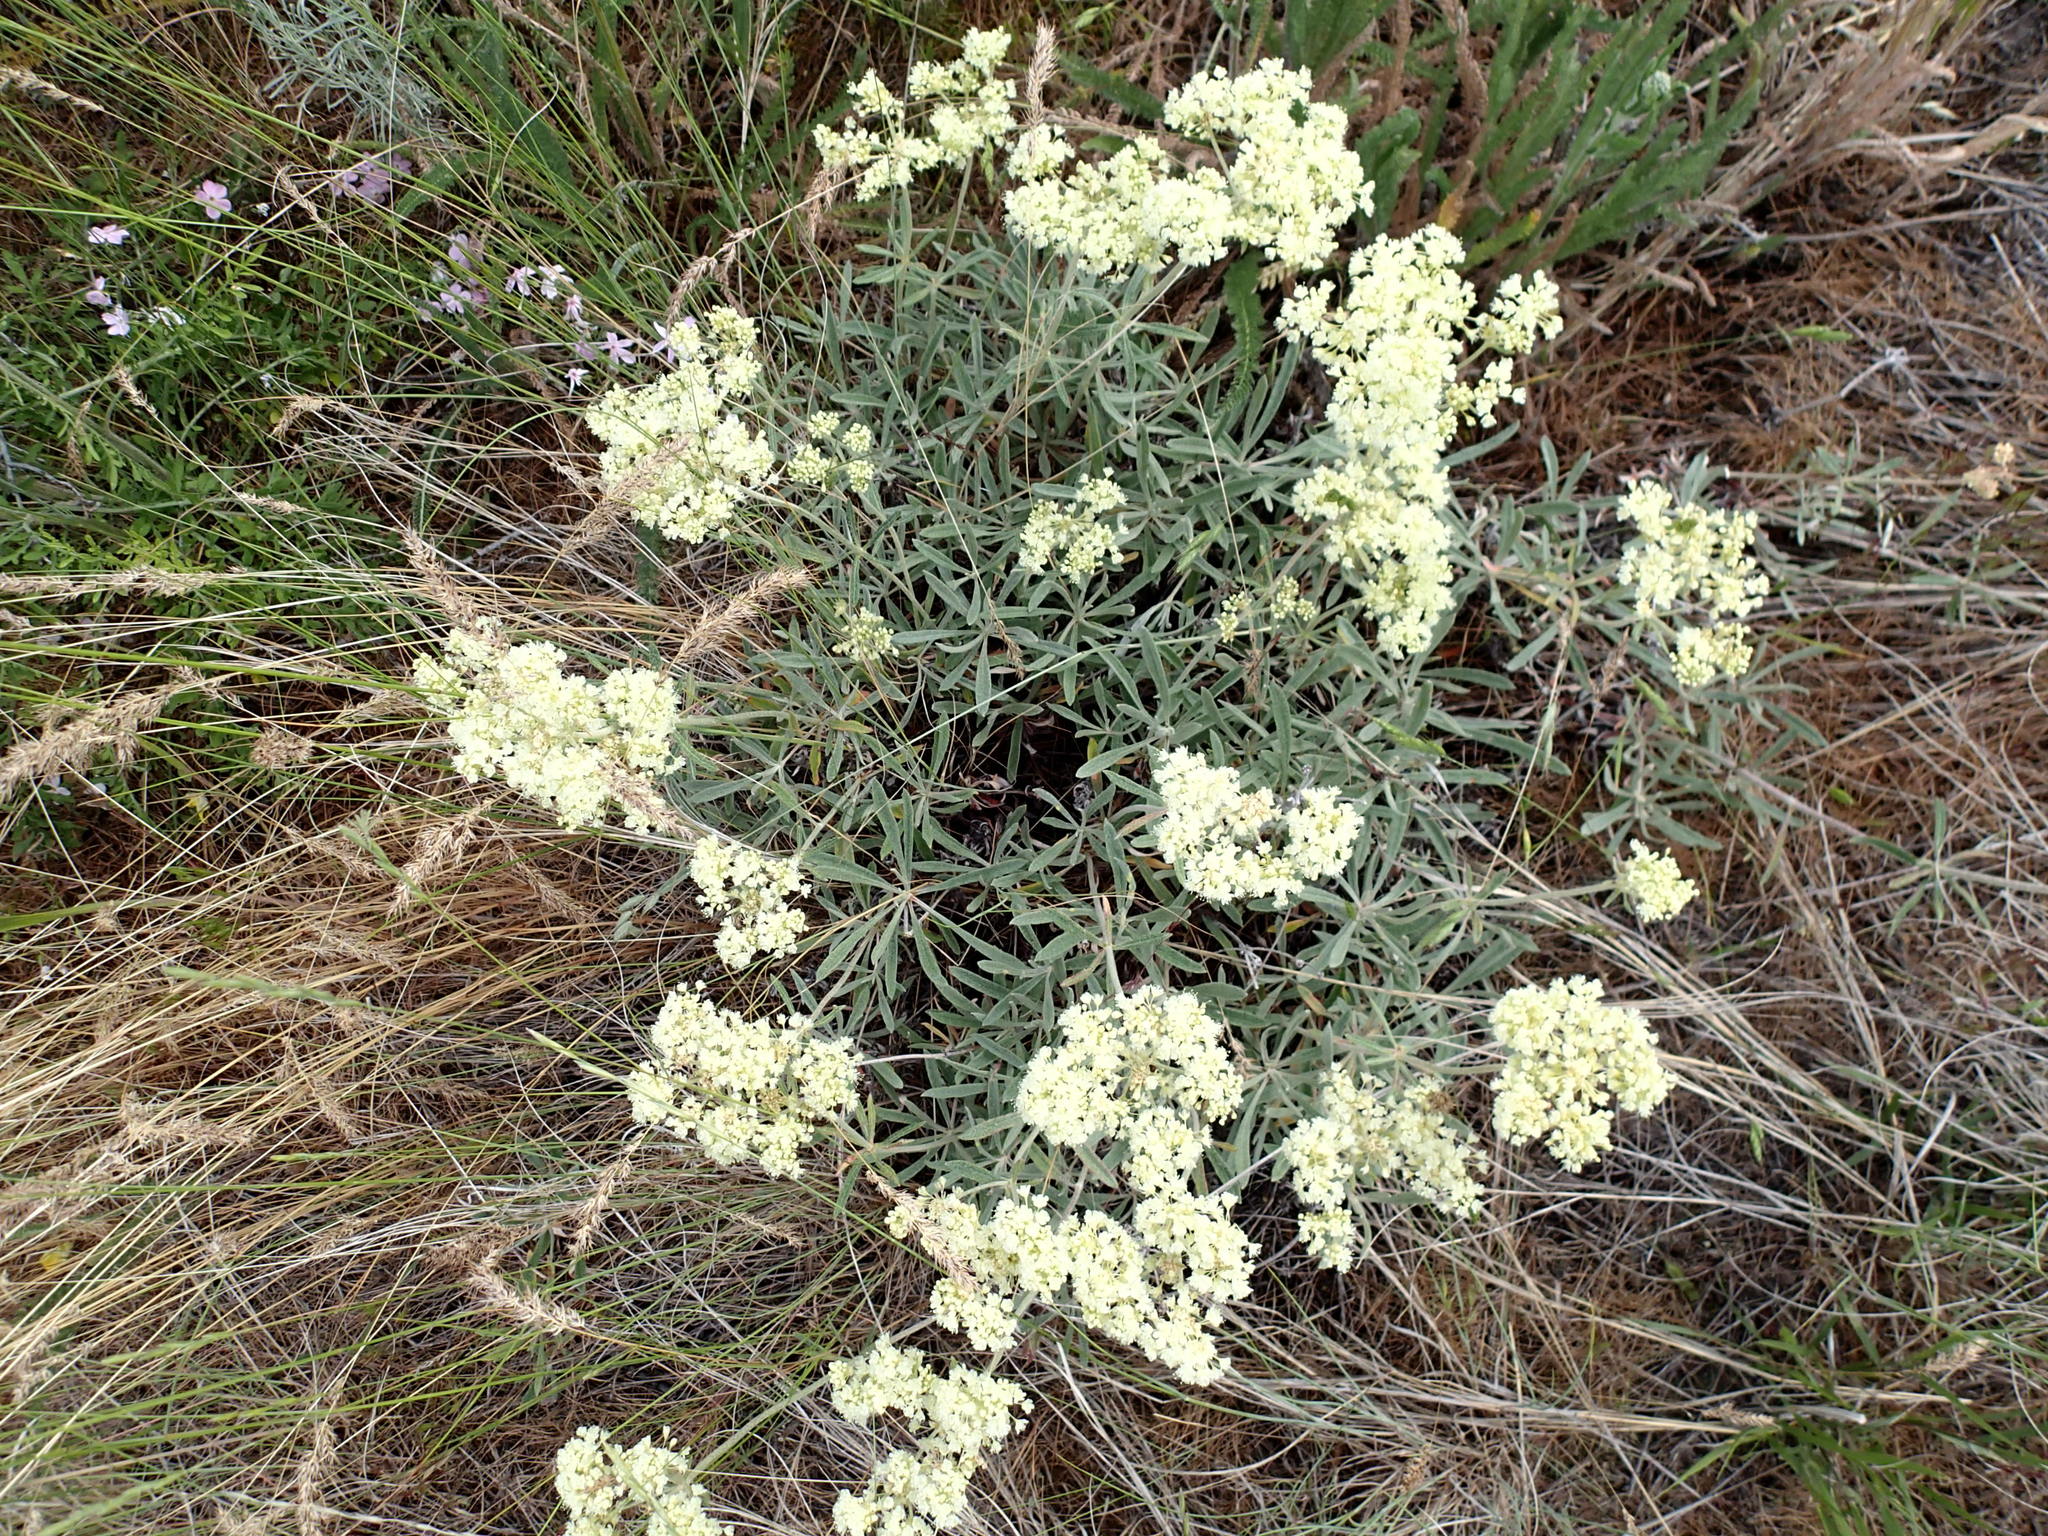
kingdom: Plantae
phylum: Tracheophyta
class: Magnoliopsida
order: Caryophyllales
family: Polygonaceae
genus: Eriogonum
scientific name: Eriogonum heracleoides
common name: Wyeth's buckwheat
